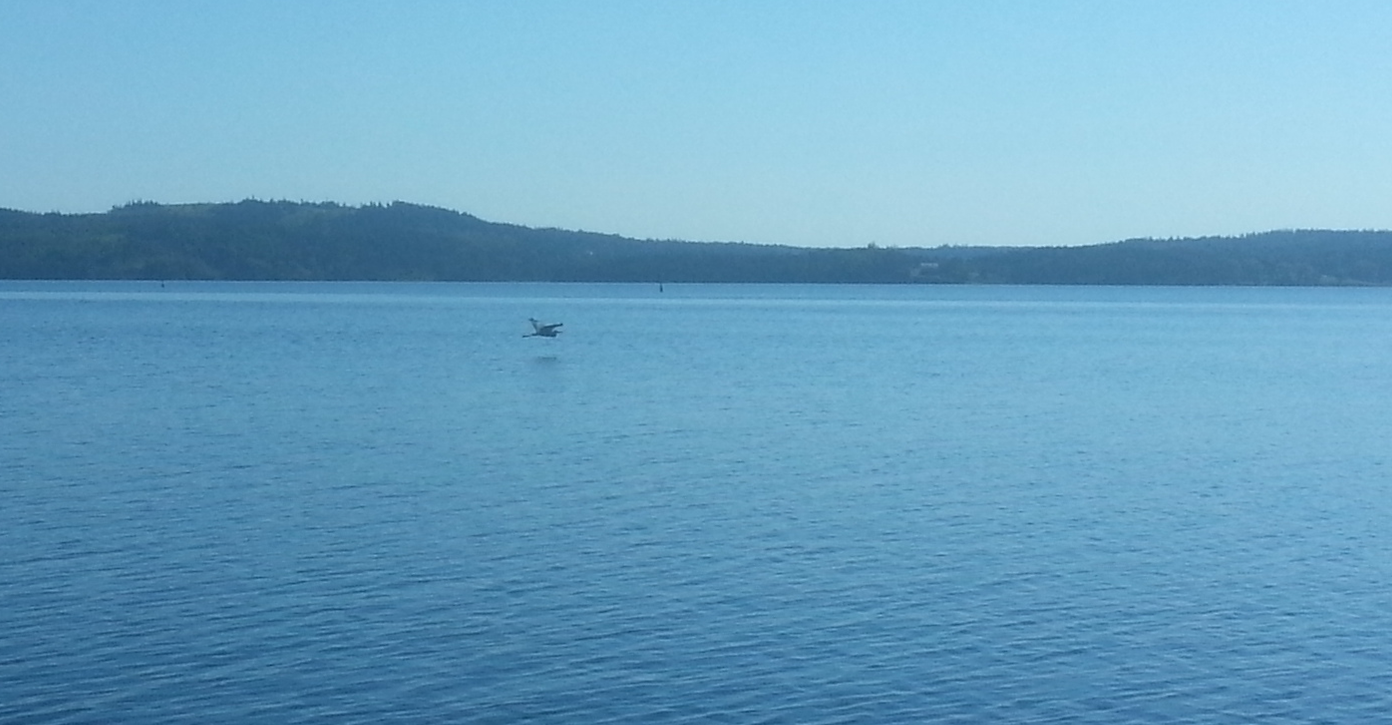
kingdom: Animalia
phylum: Chordata
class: Aves
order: Pelecaniformes
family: Ardeidae
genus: Ardea
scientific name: Ardea herodias
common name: Great blue heron
